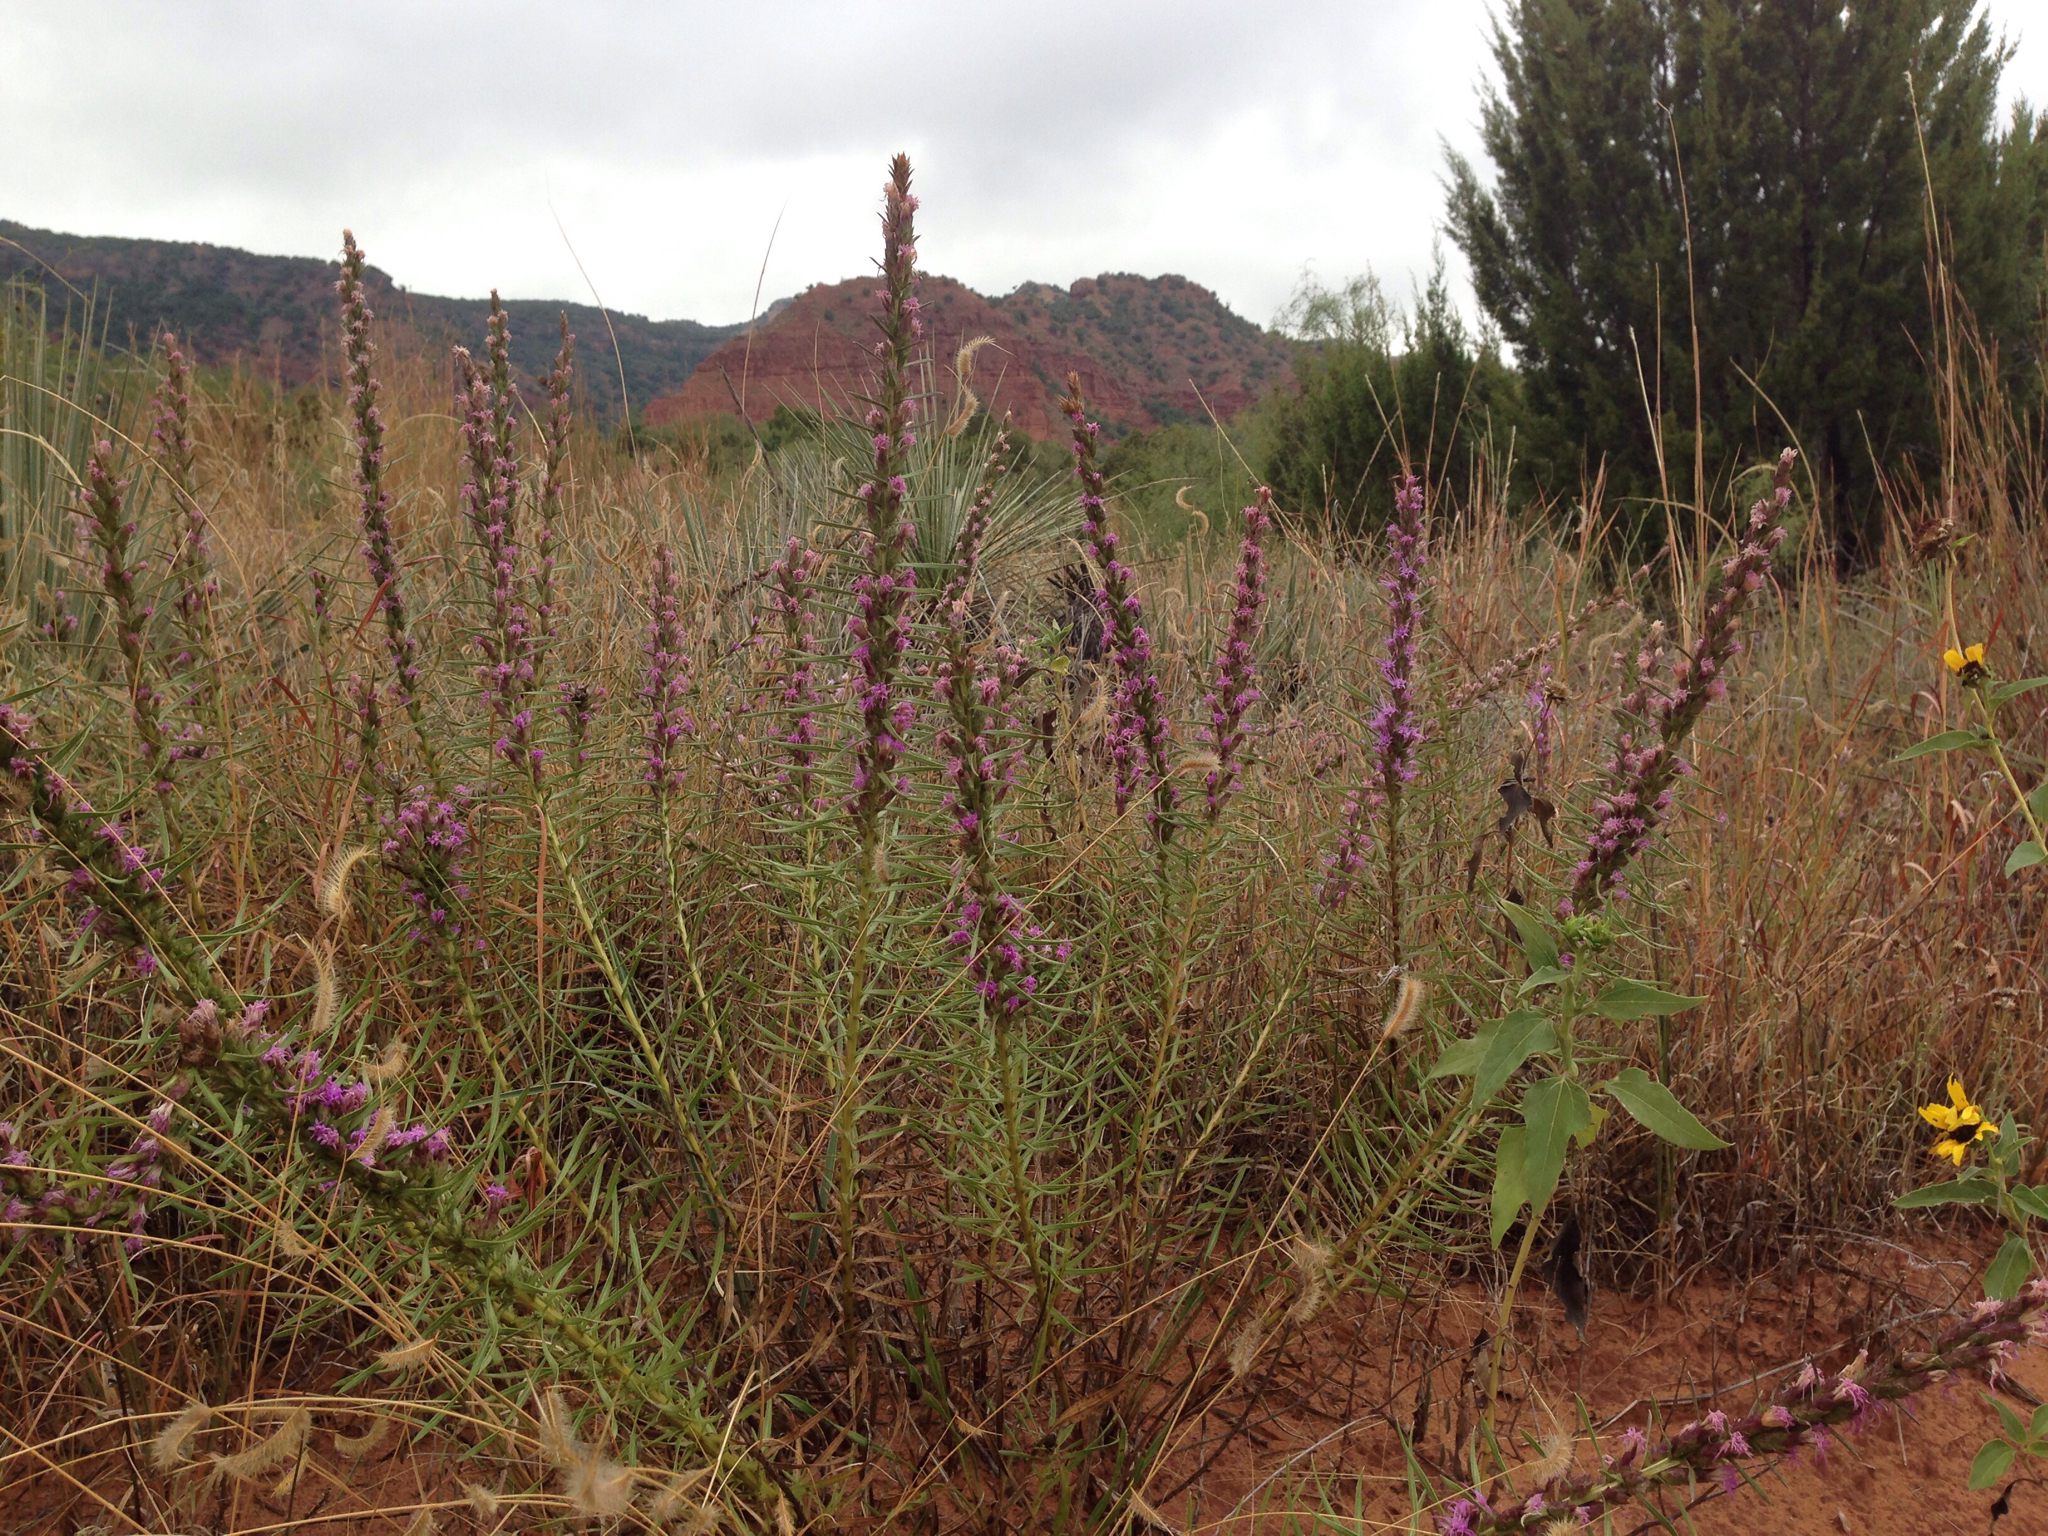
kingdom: Plantae
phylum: Tracheophyta
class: Magnoliopsida
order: Asterales
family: Asteraceae
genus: Liatris
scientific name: Liatris punctata
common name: Dotted gayfeather
